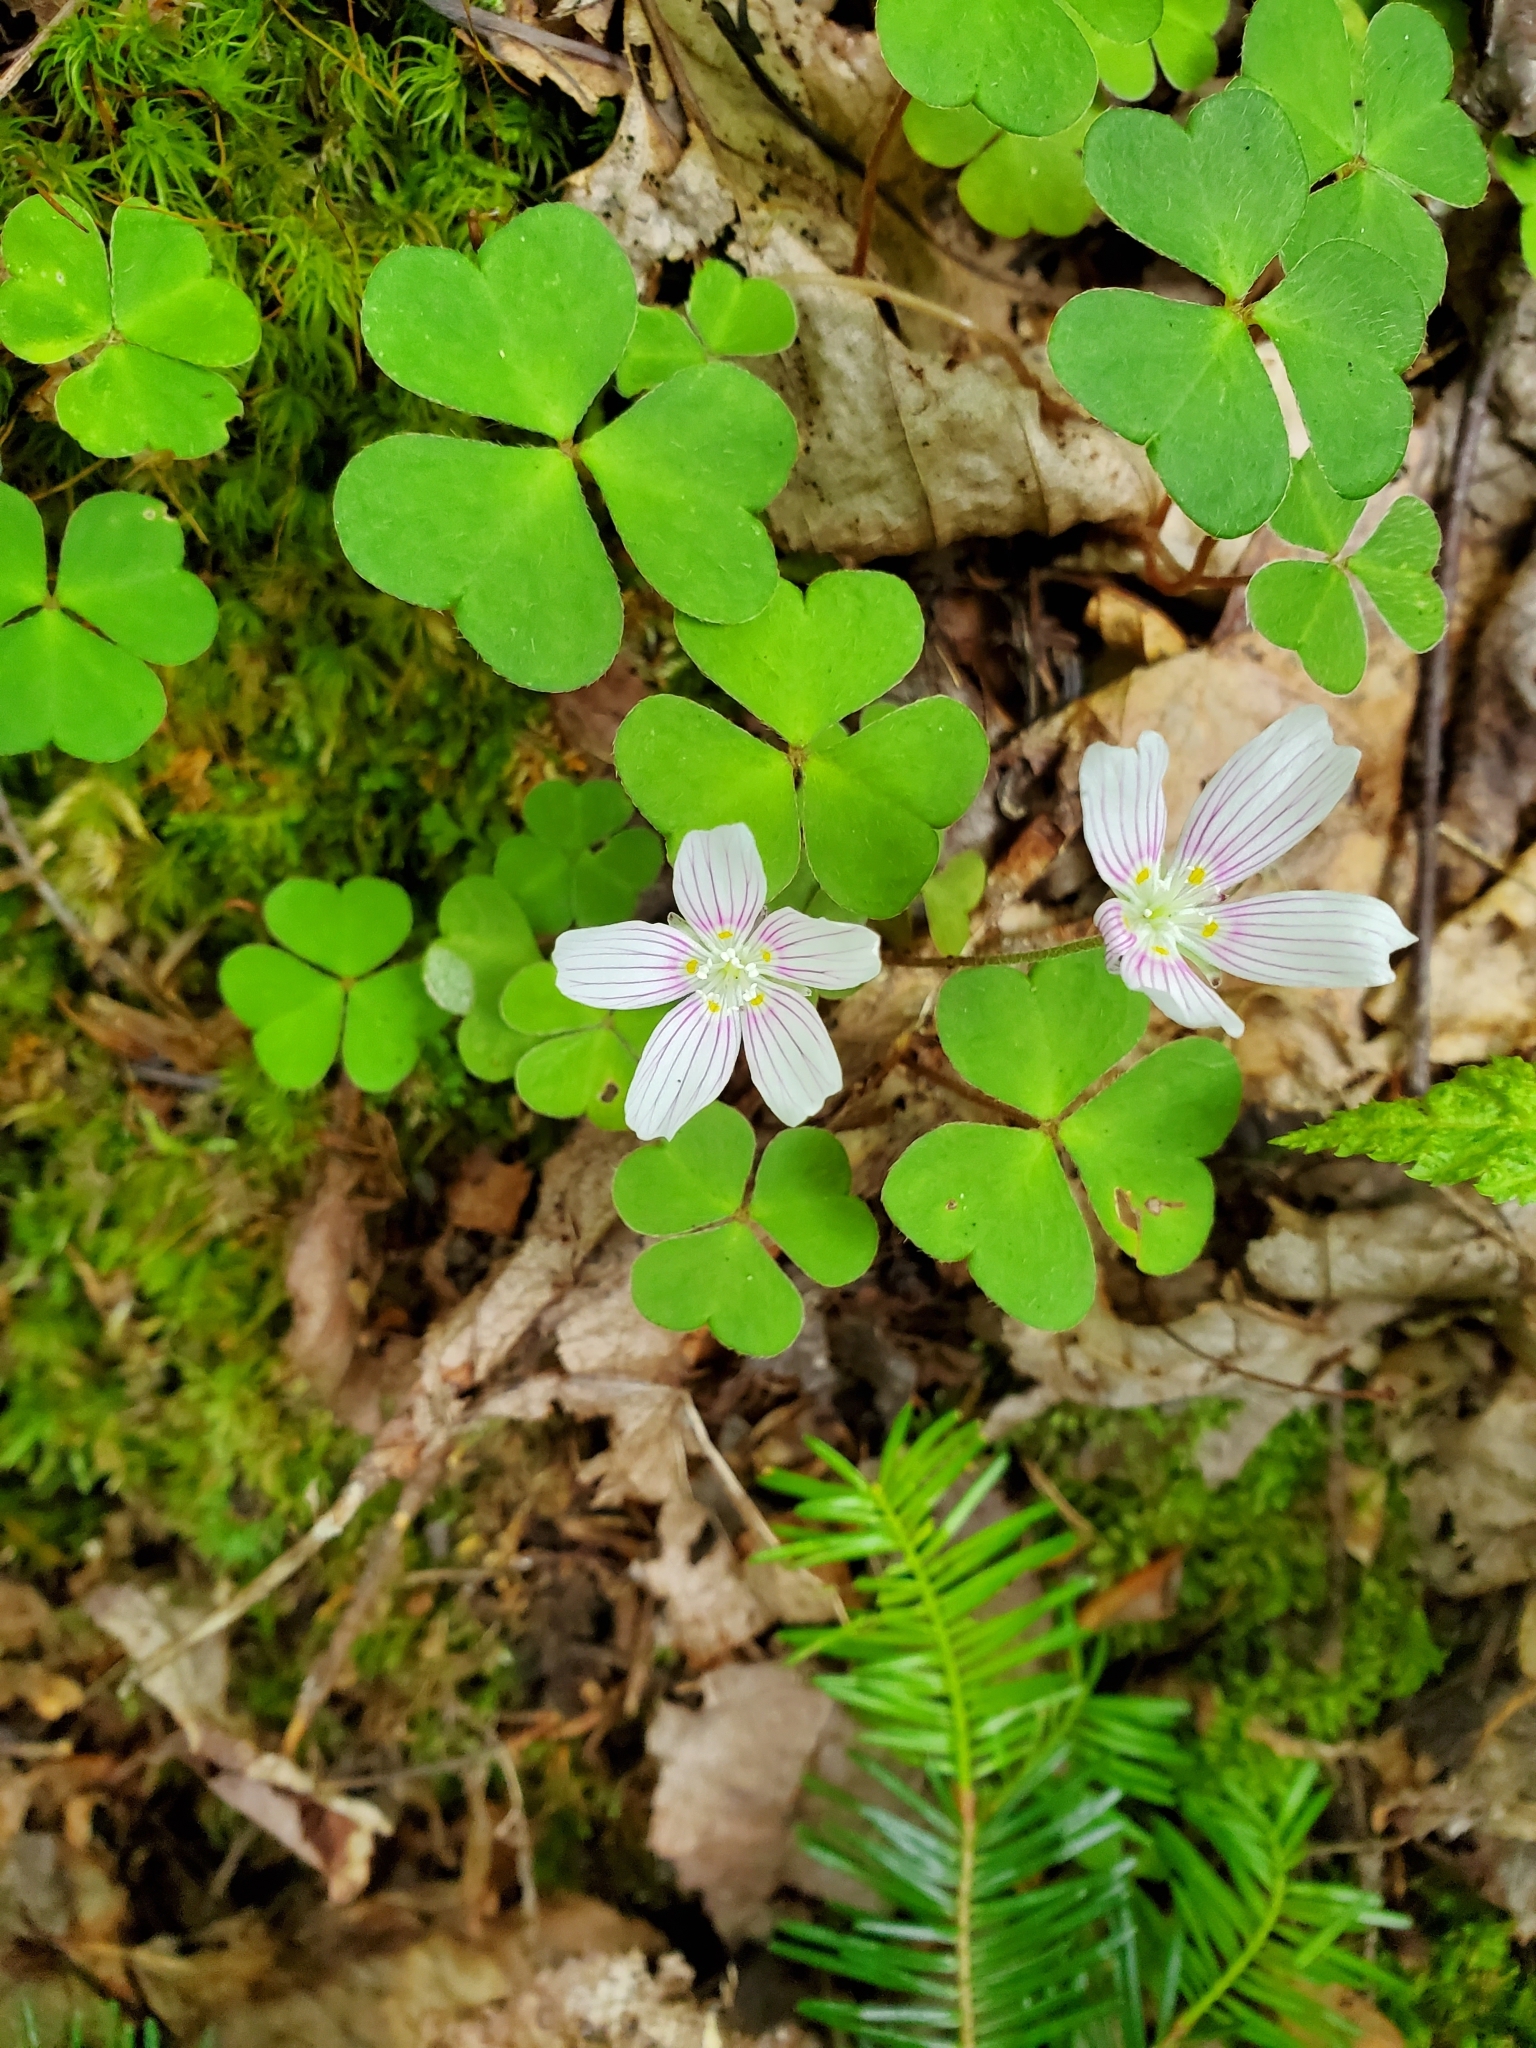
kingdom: Plantae
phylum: Tracheophyta
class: Magnoliopsida
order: Oxalidales
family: Oxalidaceae
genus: Oxalis
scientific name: Oxalis montana
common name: American wood-sorrel
